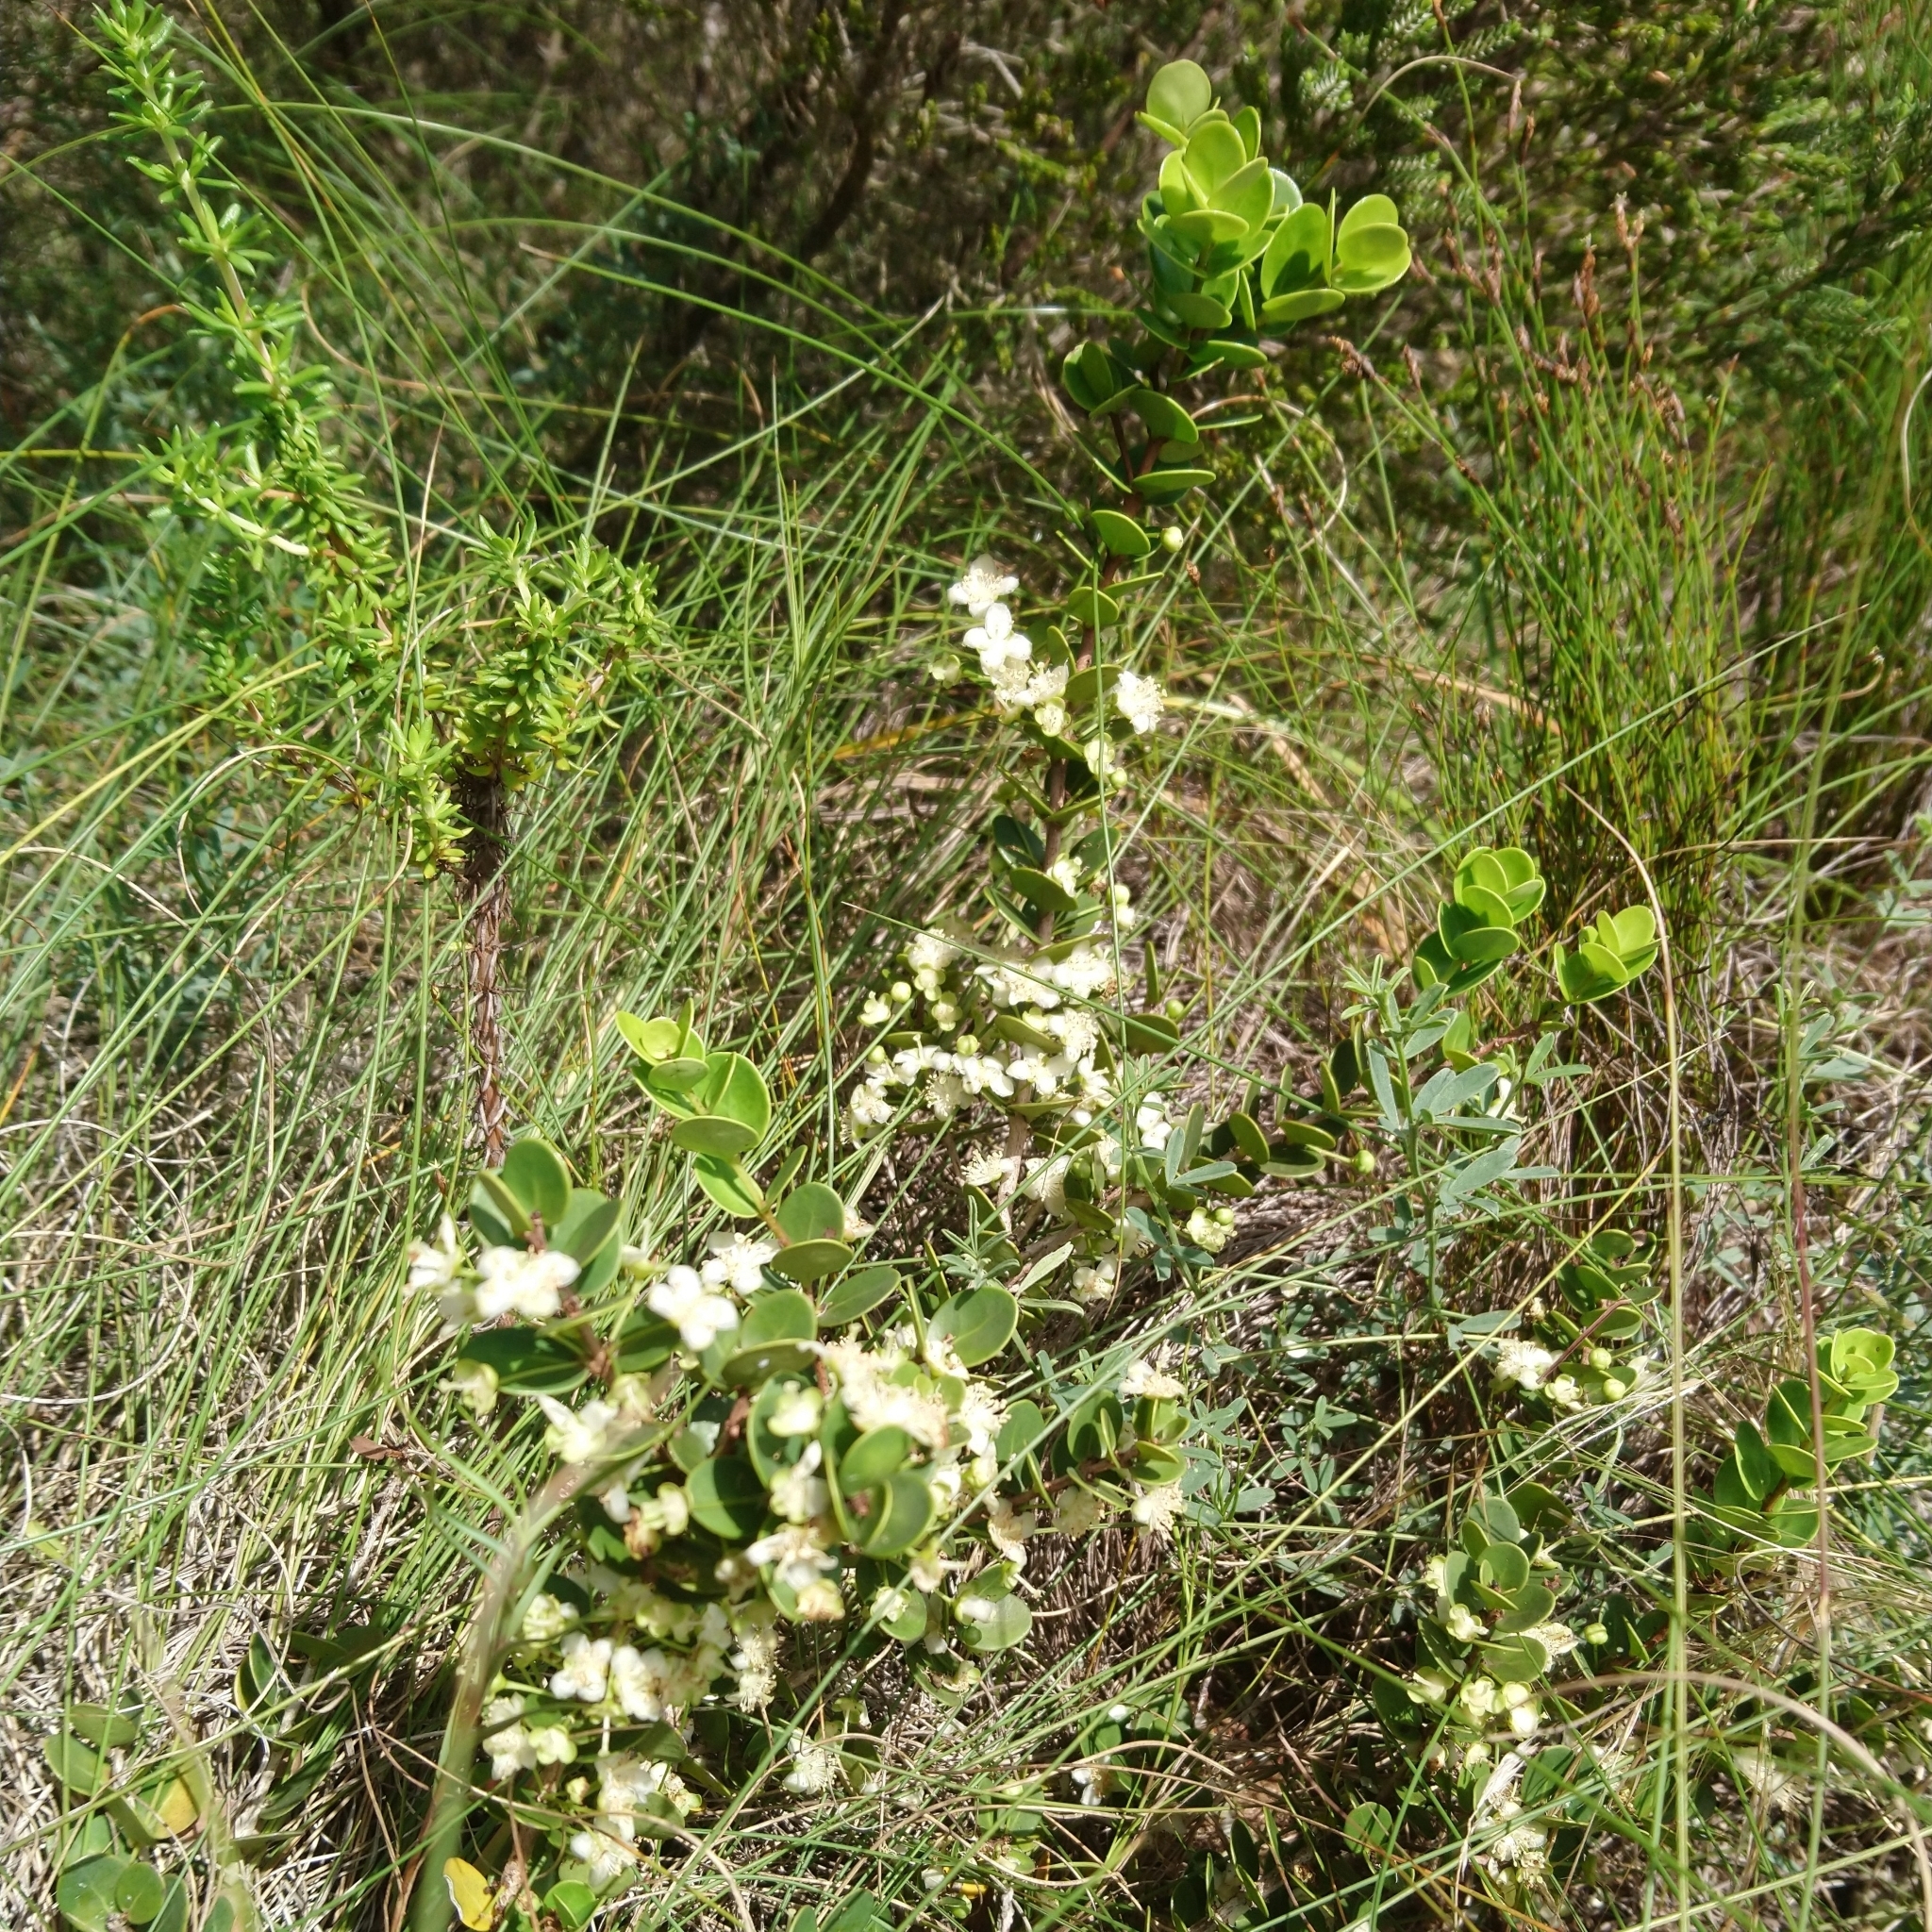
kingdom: Plantae
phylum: Tracheophyta
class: Magnoliopsida
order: Myrtales
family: Myrtaceae
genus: Eugenia
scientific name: Eugenia capensis
